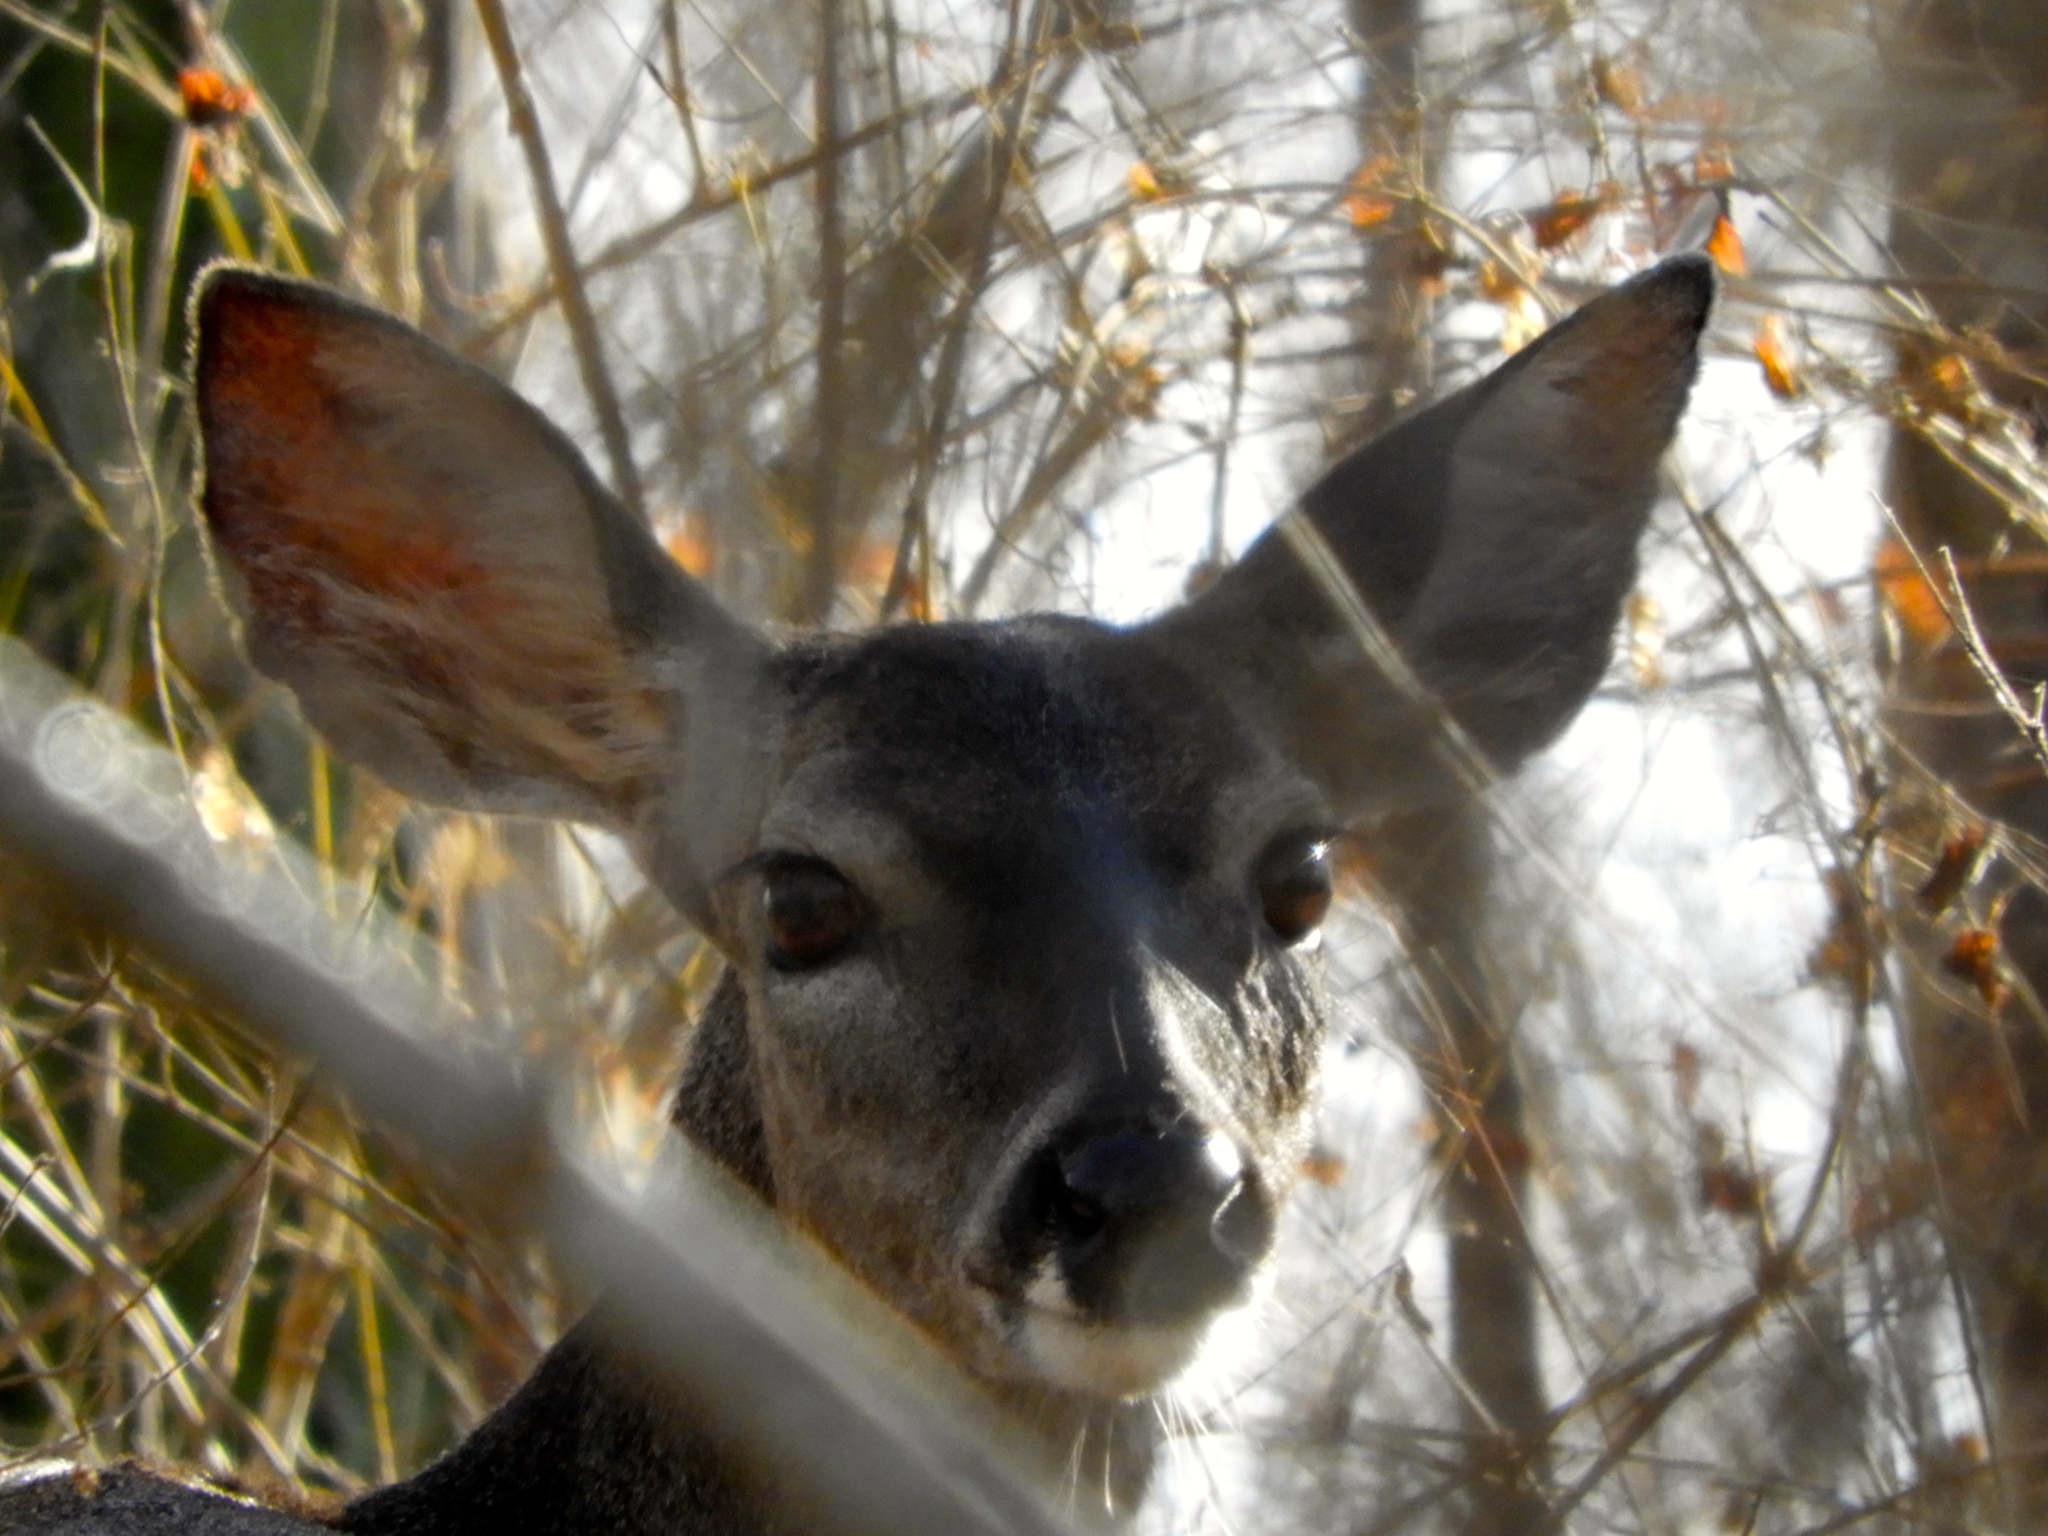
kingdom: Animalia
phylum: Chordata
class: Mammalia
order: Artiodactyla
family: Cervidae
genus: Odocoileus
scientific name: Odocoileus virginianus
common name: White-tailed deer
